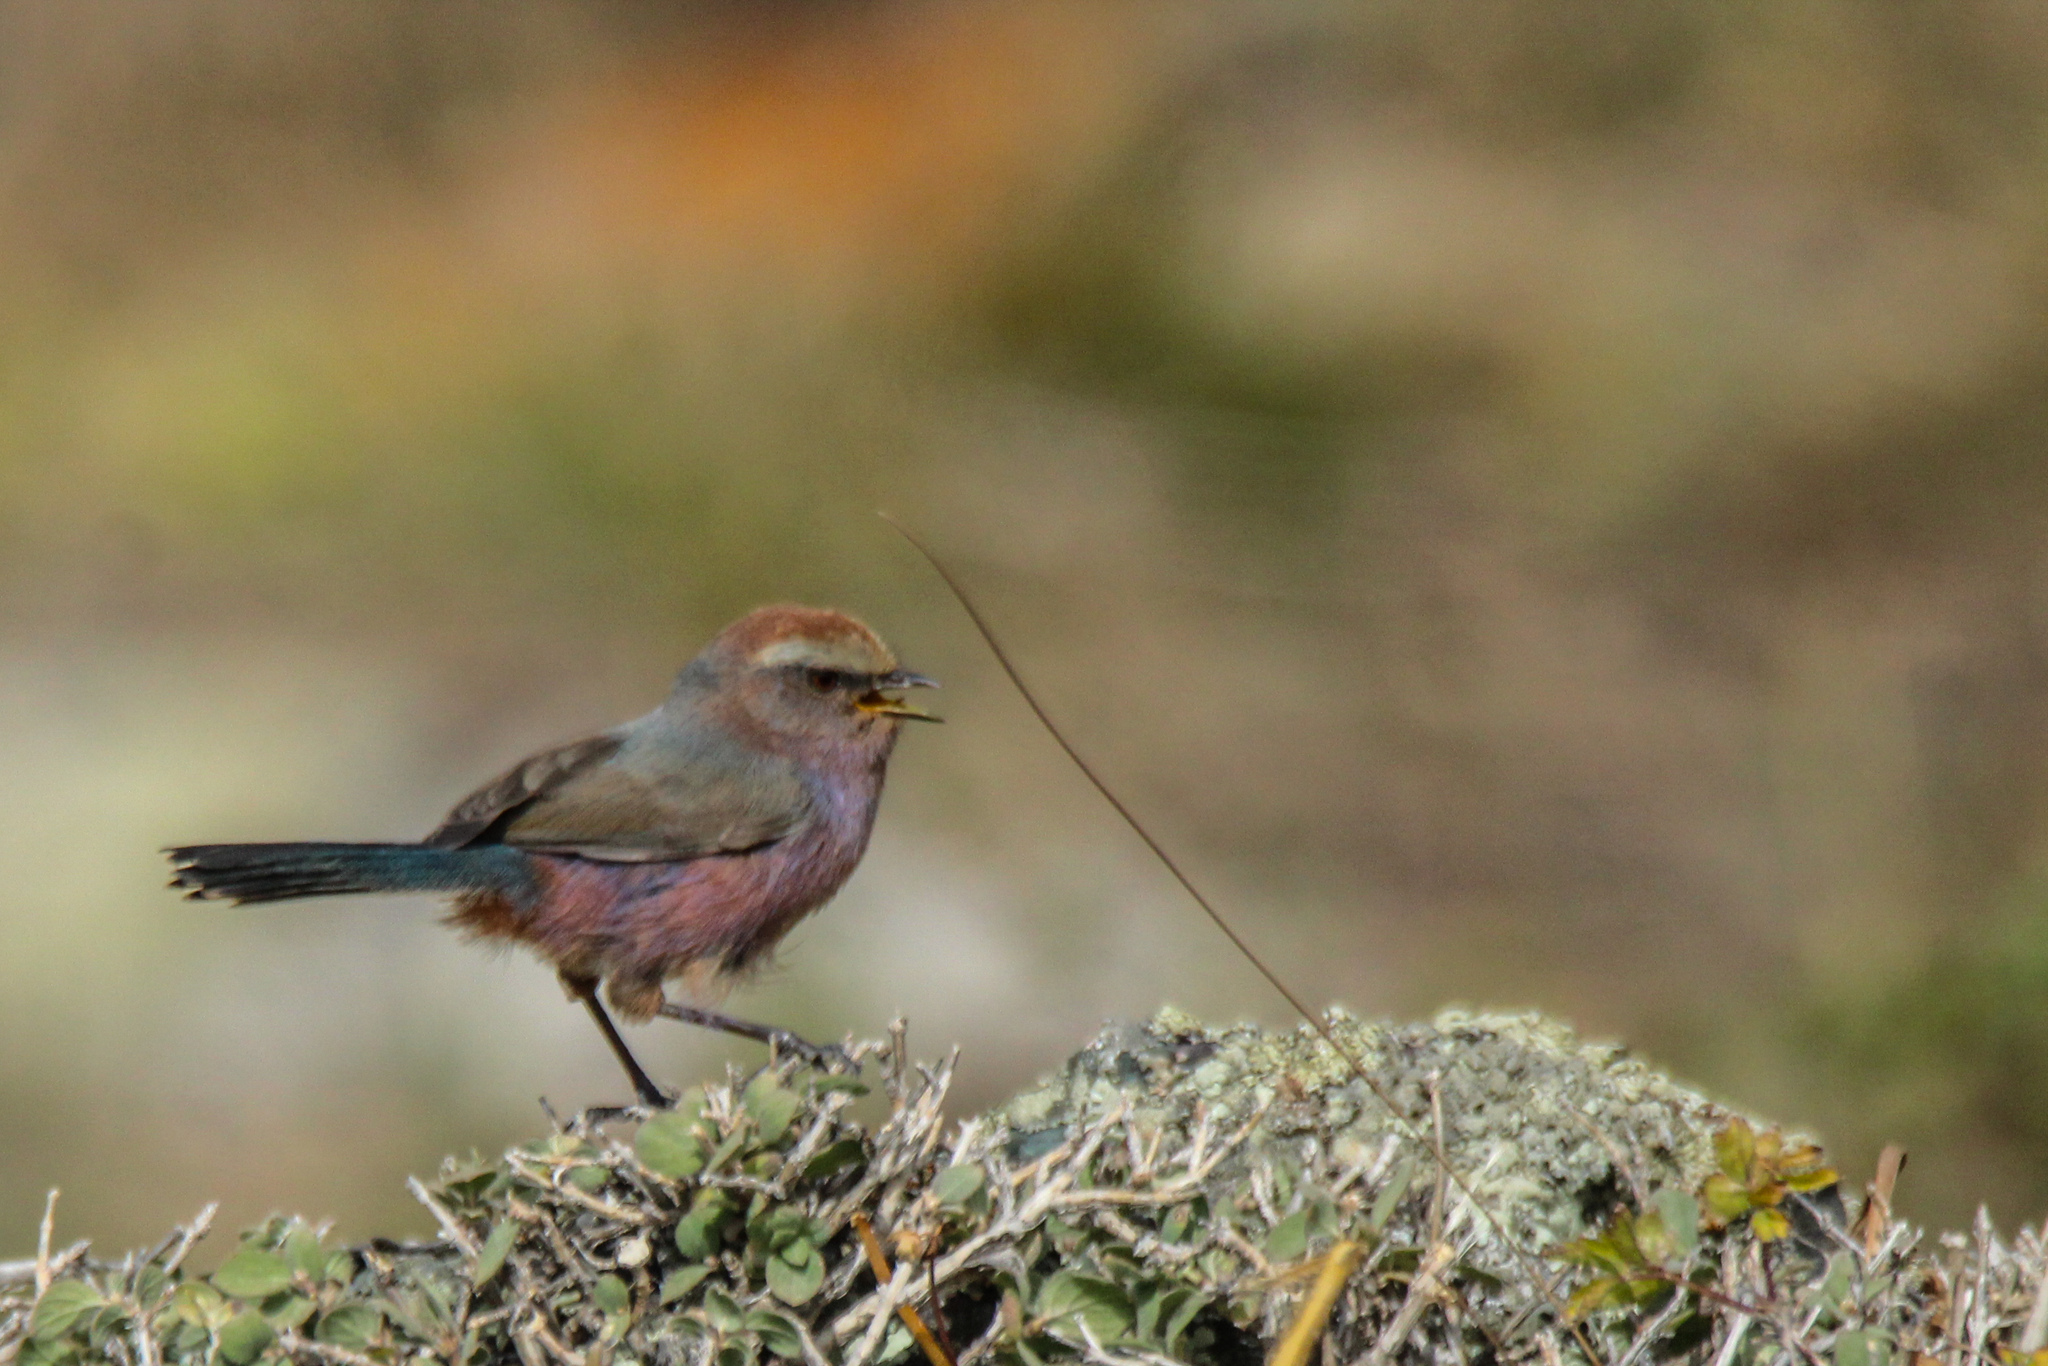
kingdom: Animalia
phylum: Chordata
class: Aves
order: Passeriformes
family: Aegithalidae
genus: Leptopoecile
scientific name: Leptopoecile sophiae
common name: White-browed tit-warbler
